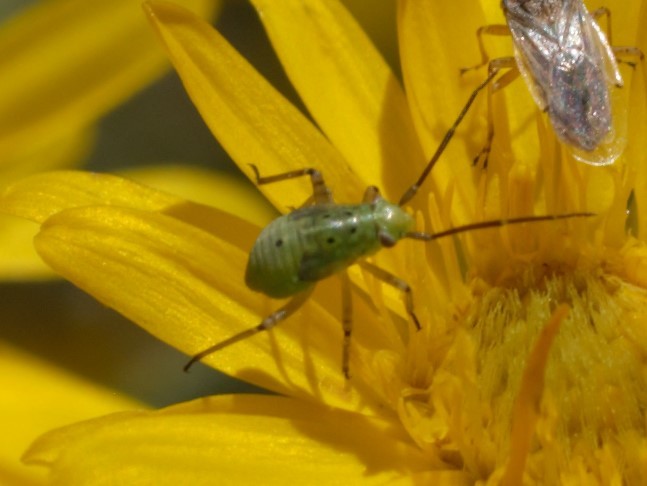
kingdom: Animalia
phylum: Arthropoda
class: Insecta
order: Hemiptera
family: Miridae
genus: Lygus
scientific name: Lygus
